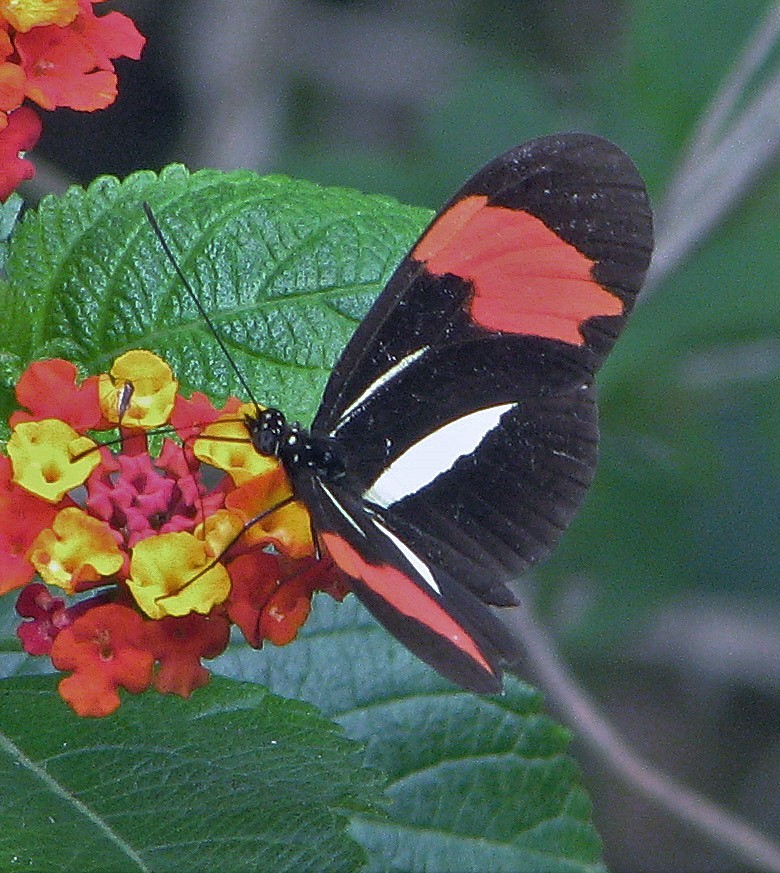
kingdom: Animalia
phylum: Arthropoda
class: Insecta
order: Lepidoptera
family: Nymphalidae
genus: Heliconius
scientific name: Heliconius erato
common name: Common patch longwing
